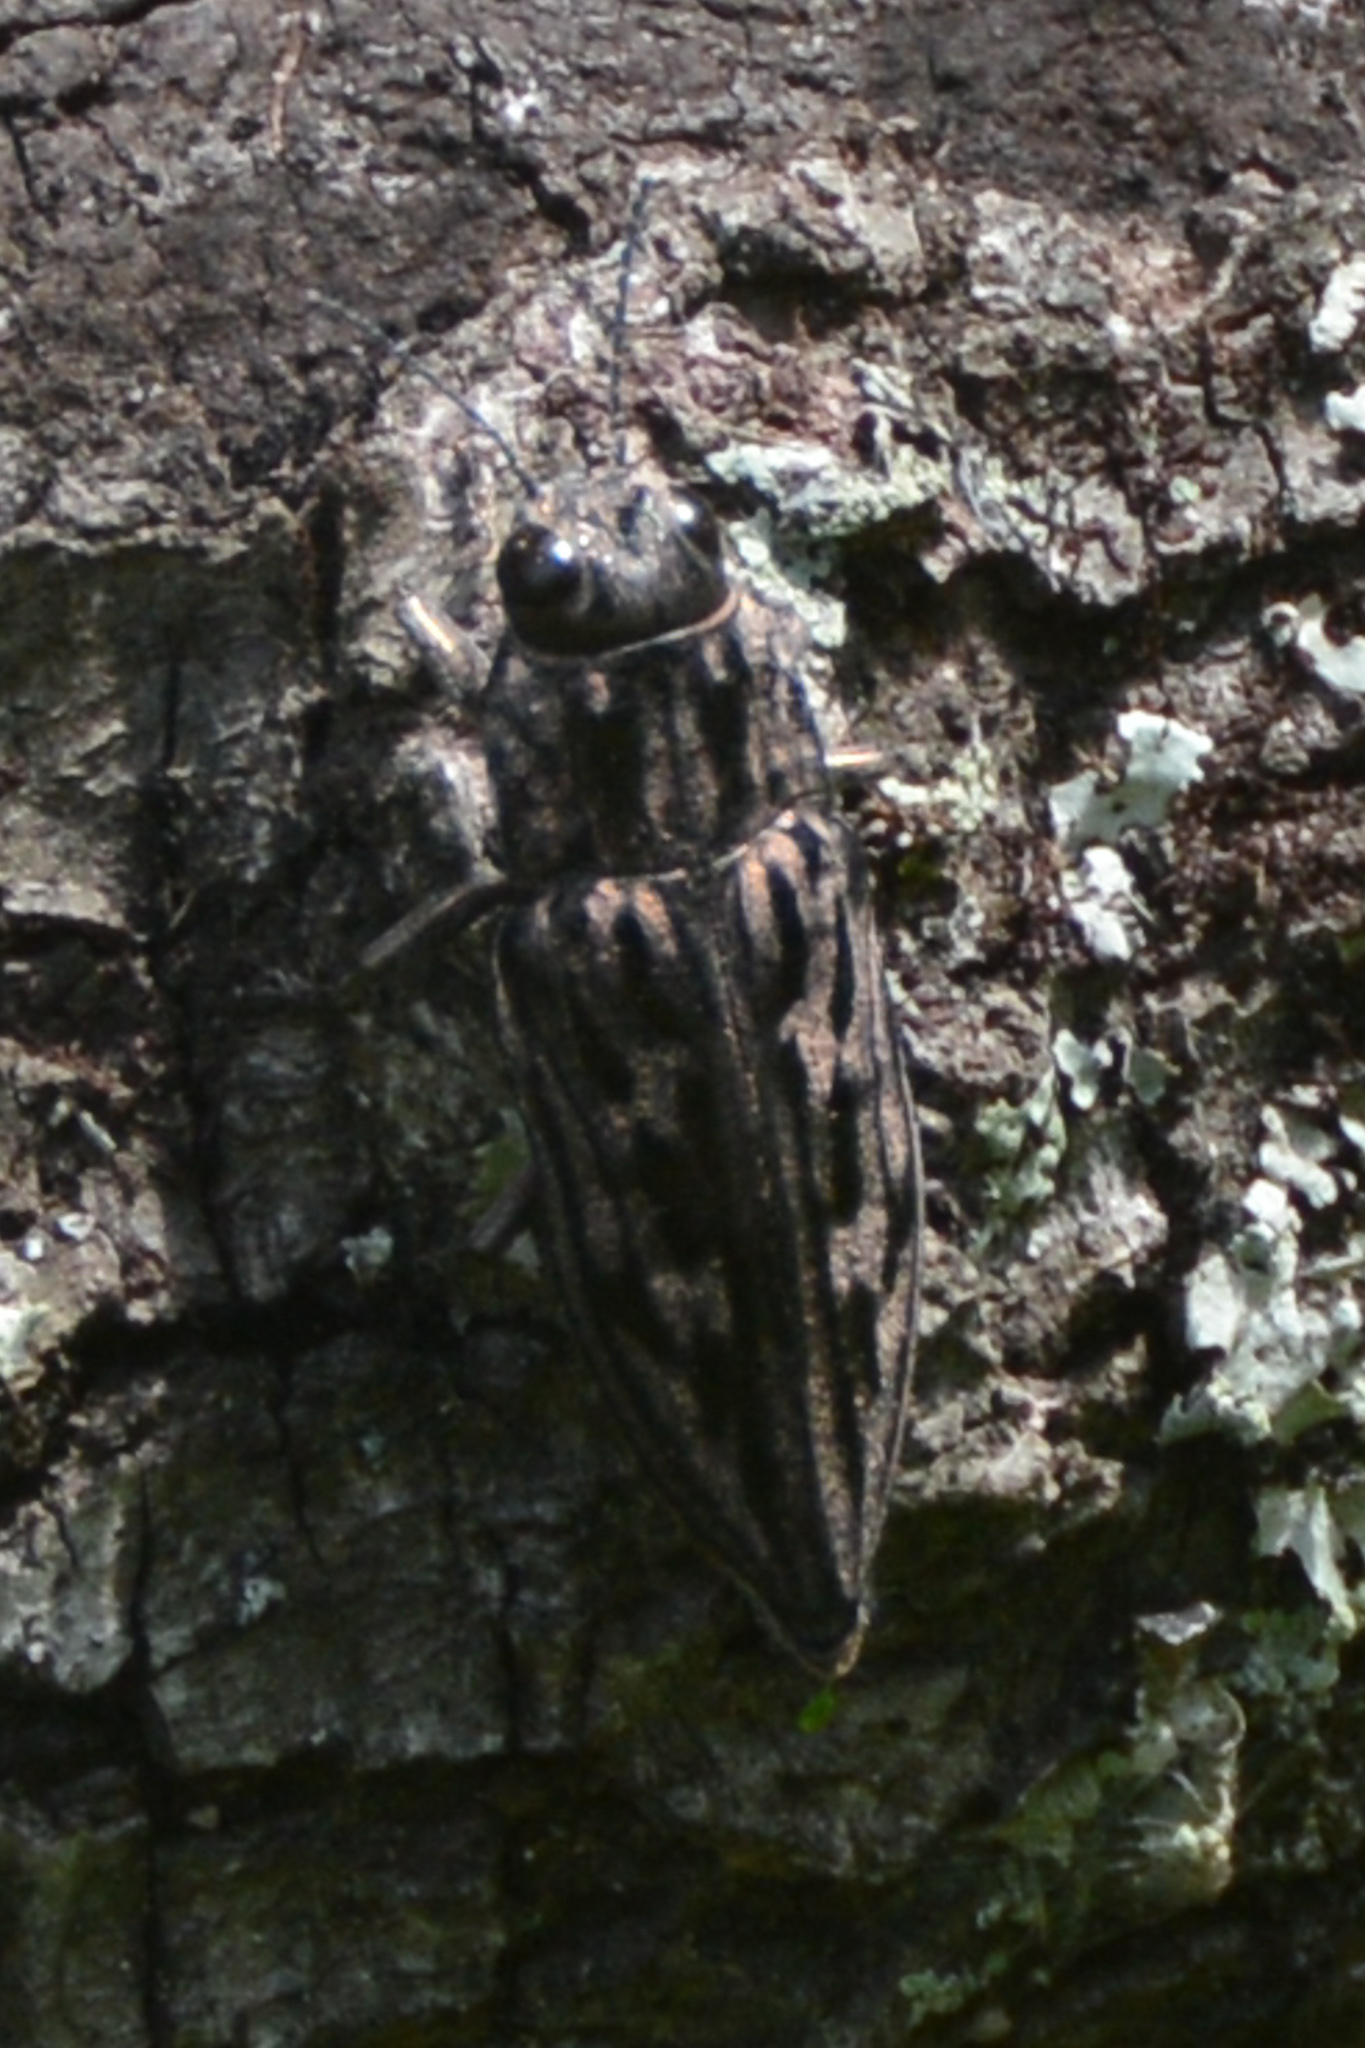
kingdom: Animalia
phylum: Arthropoda
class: Insecta
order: Coleoptera
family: Buprestidae
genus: Chalcophora
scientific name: Chalcophora virginiensis
